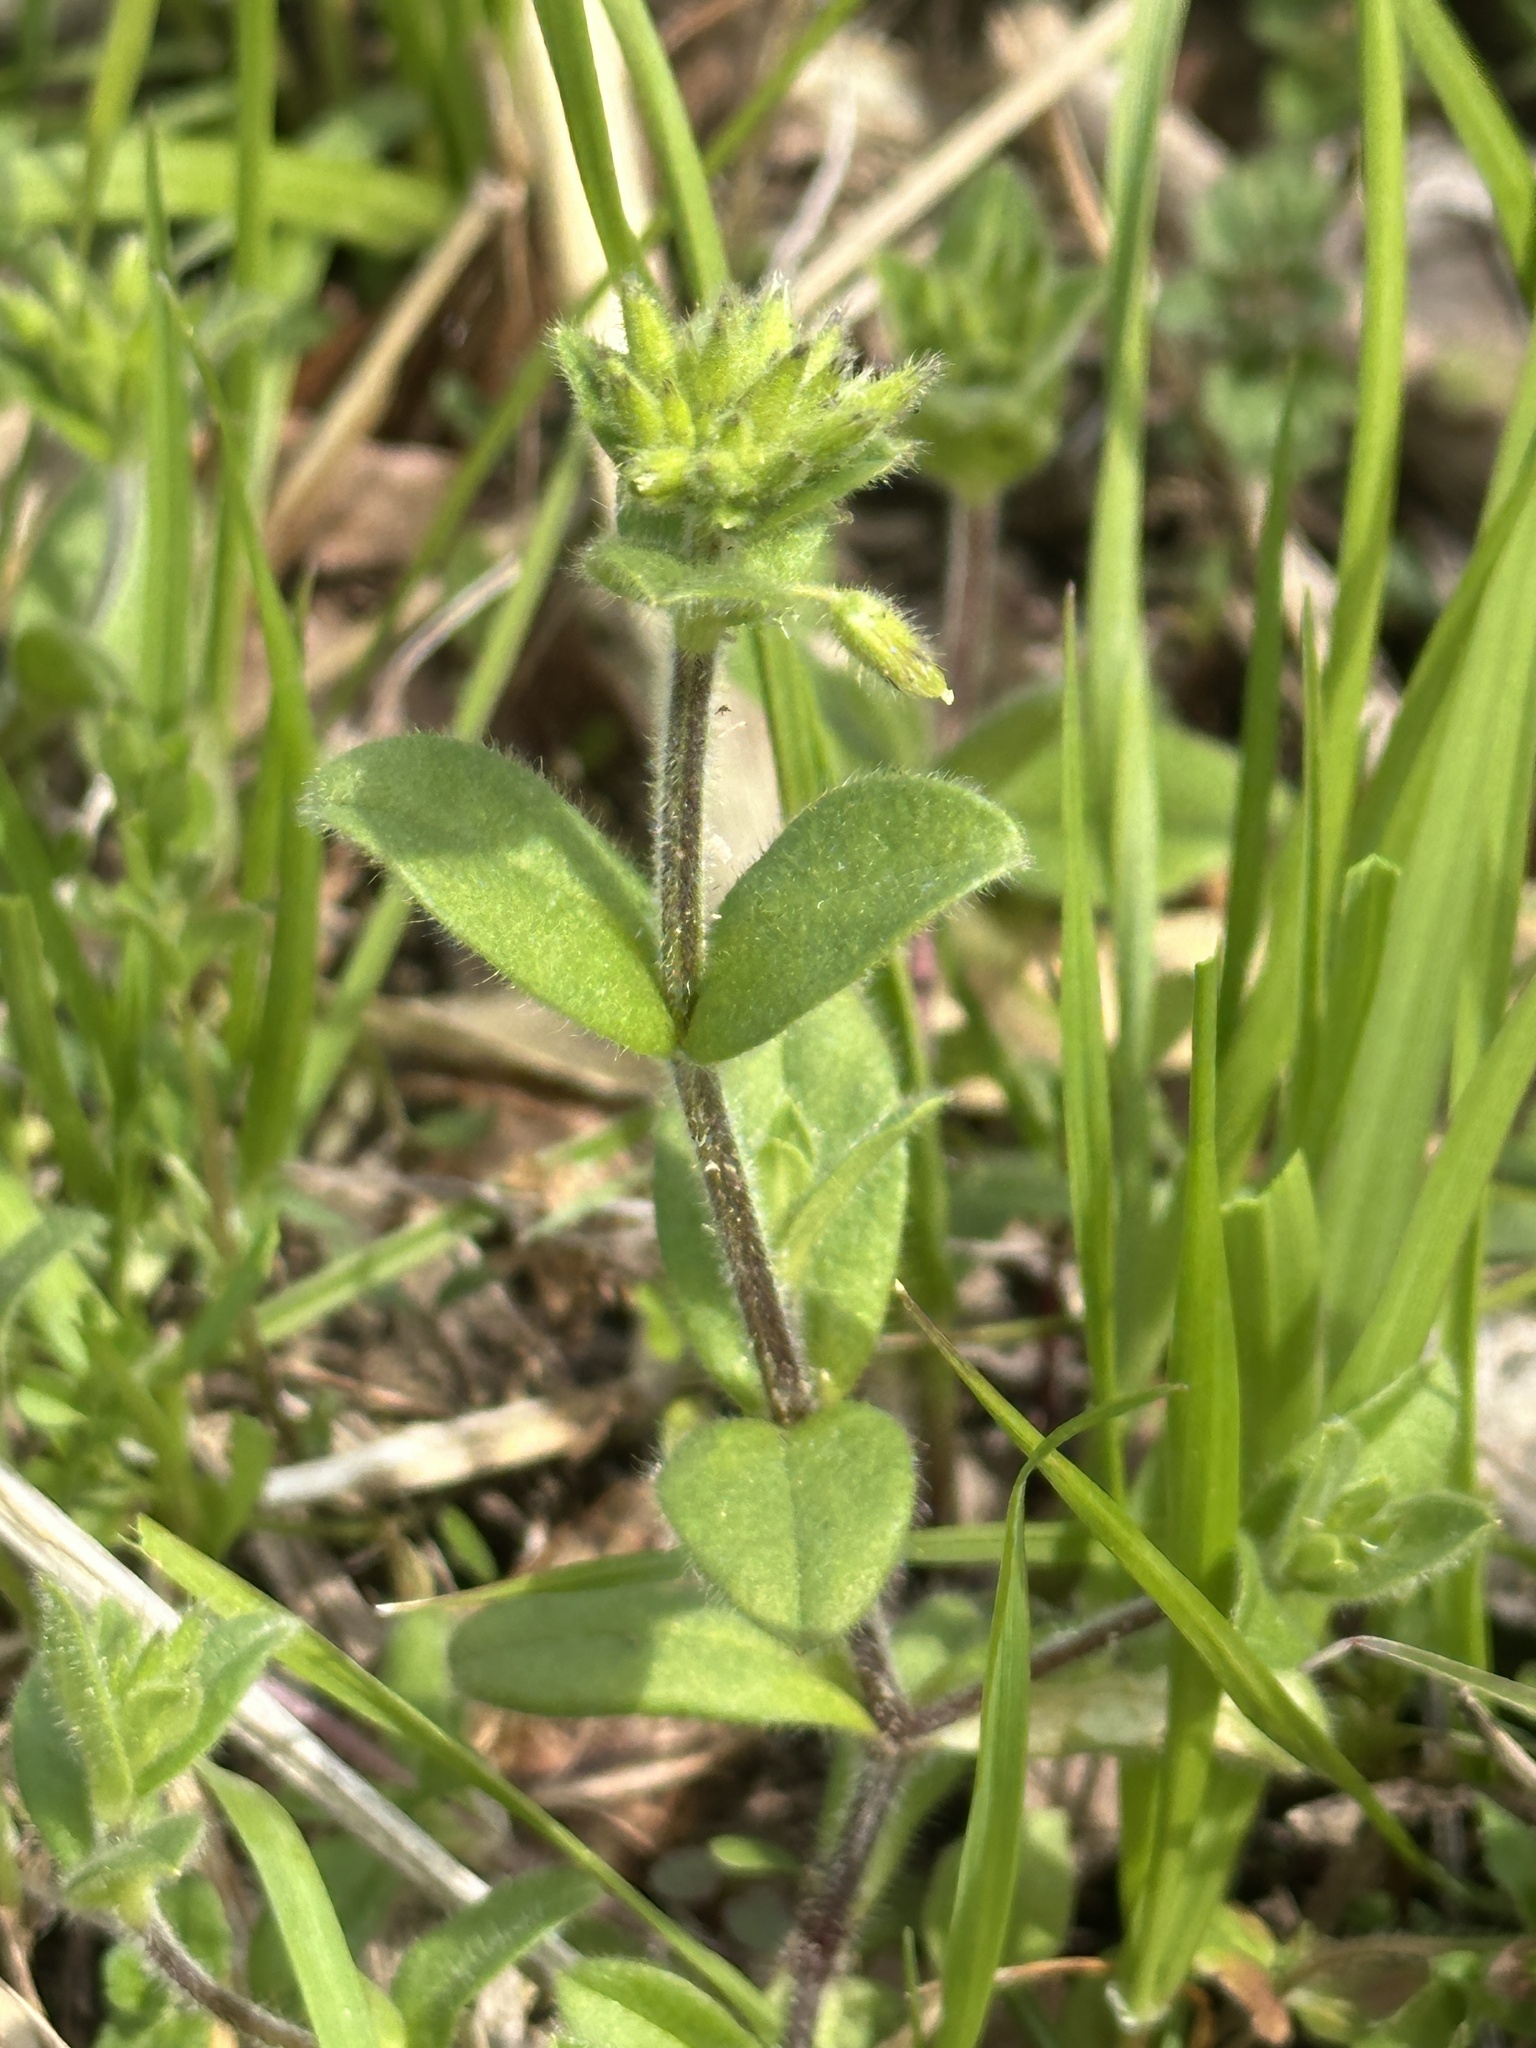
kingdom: Plantae
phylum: Tracheophyta
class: Magnoliopsida
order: Caryophyllales
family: Caryophyllaceae
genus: Cerastium
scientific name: Cerastium glomeratum
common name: Sticky chickweed
